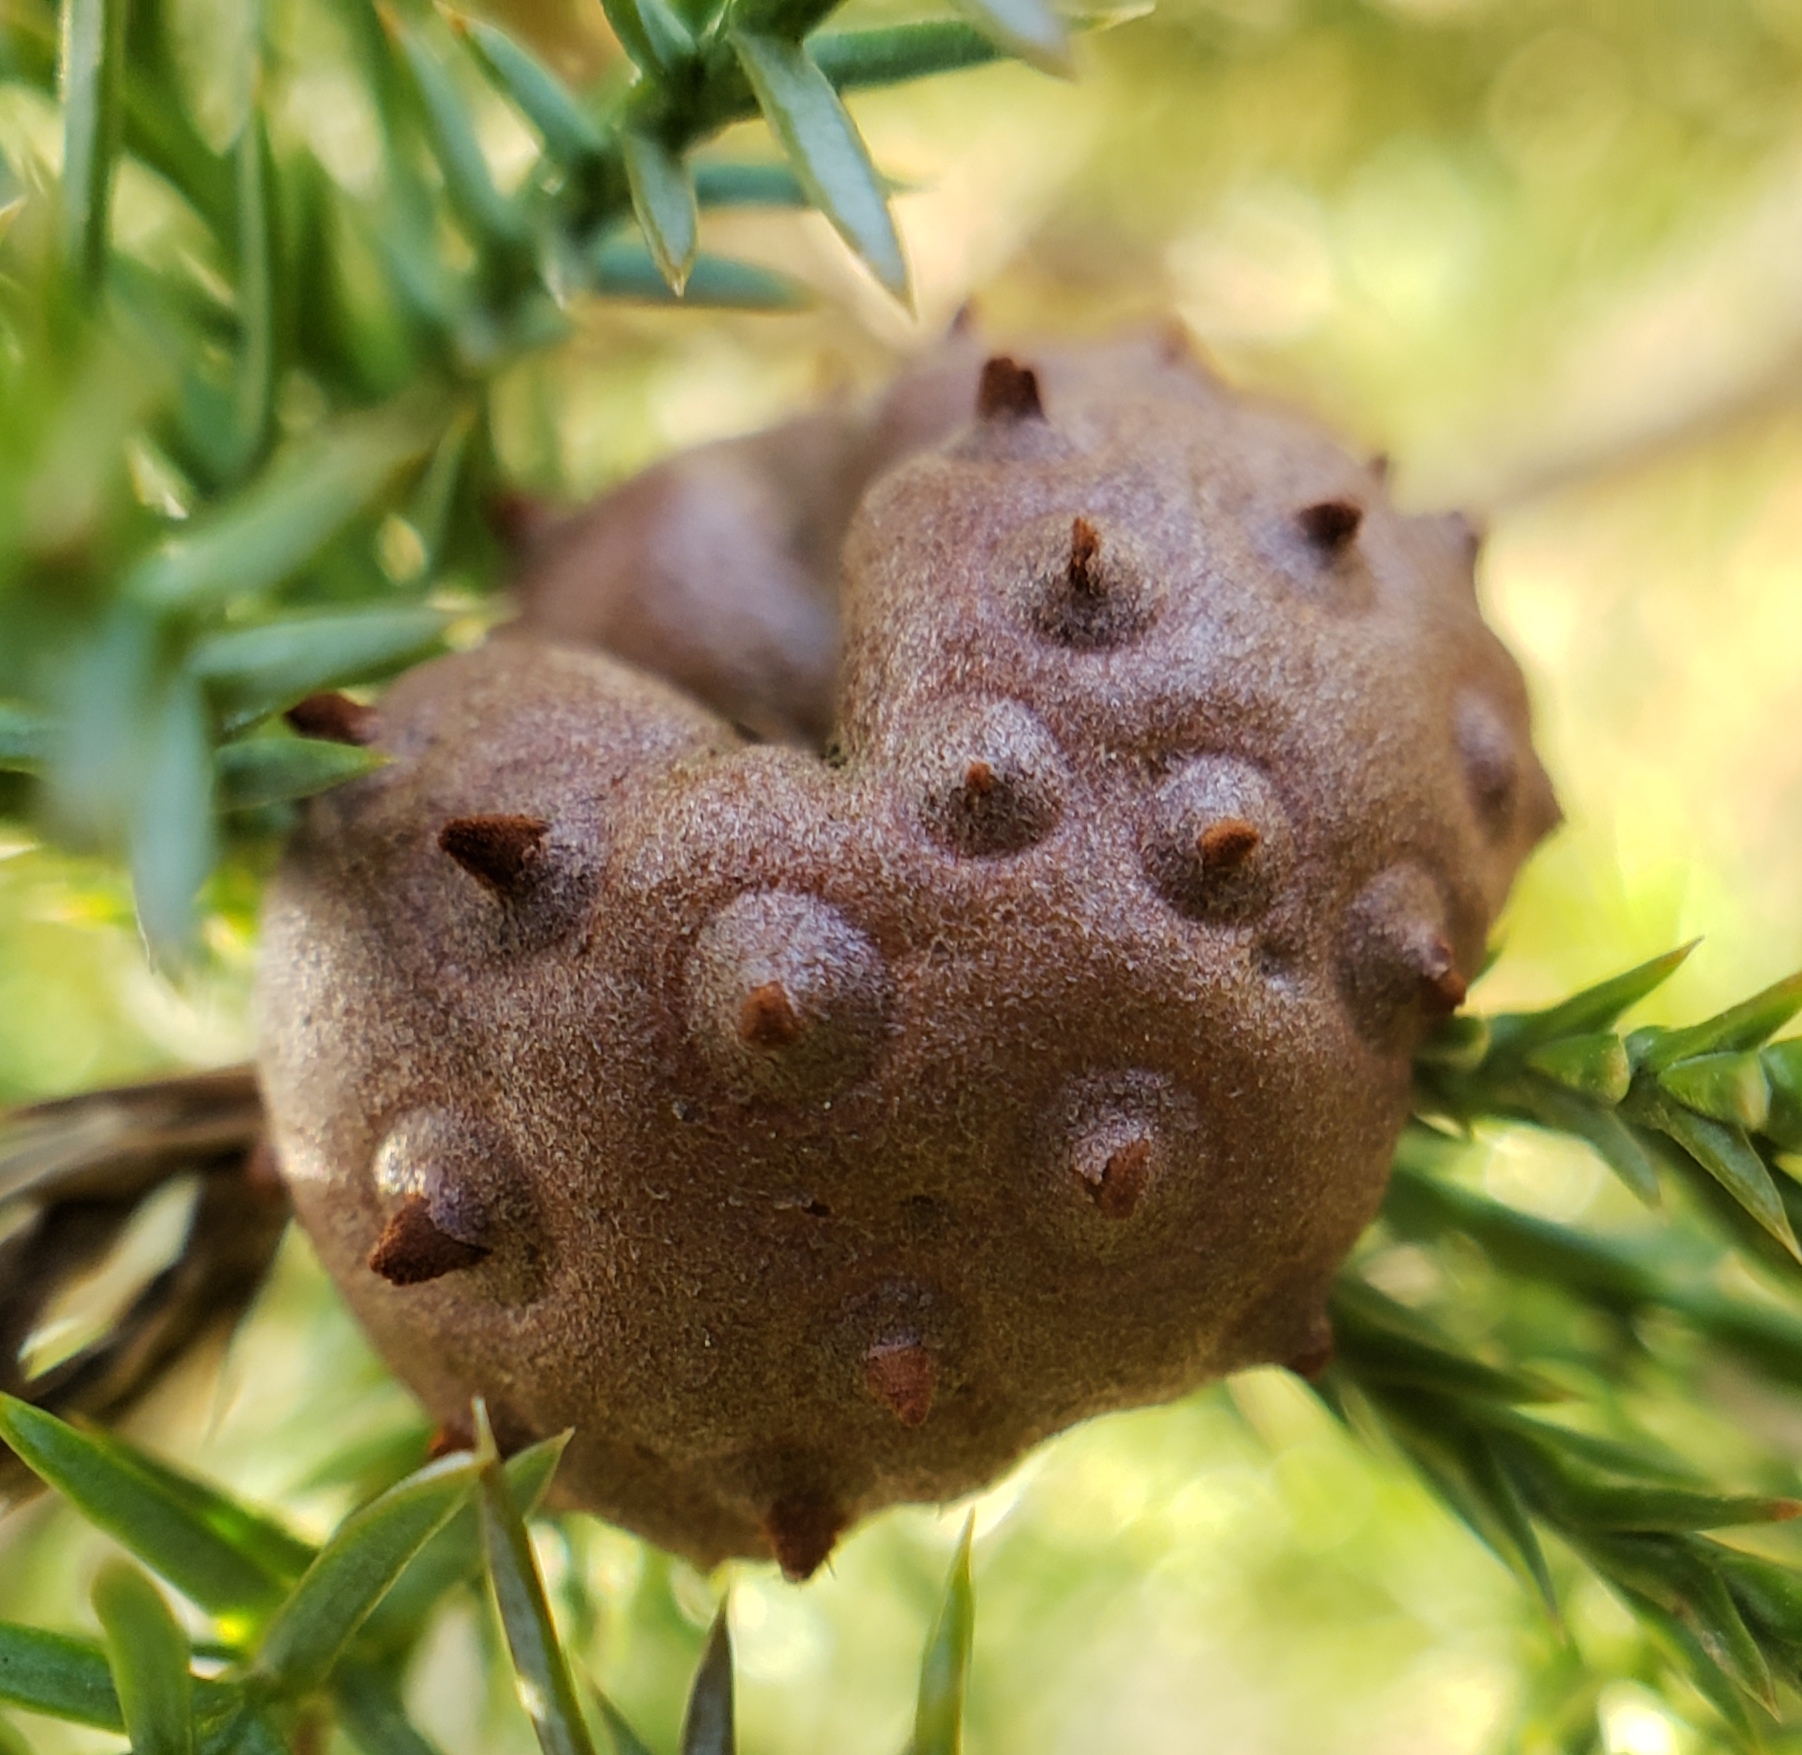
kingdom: Fungi
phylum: Basidiomycota
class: Pucciniomycetes
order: Pucciniales
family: Gymnosporangiaceae
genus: Gymnosporangium
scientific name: Gymnosporangium juniperi-virginianae
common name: Juniper-apple rust
